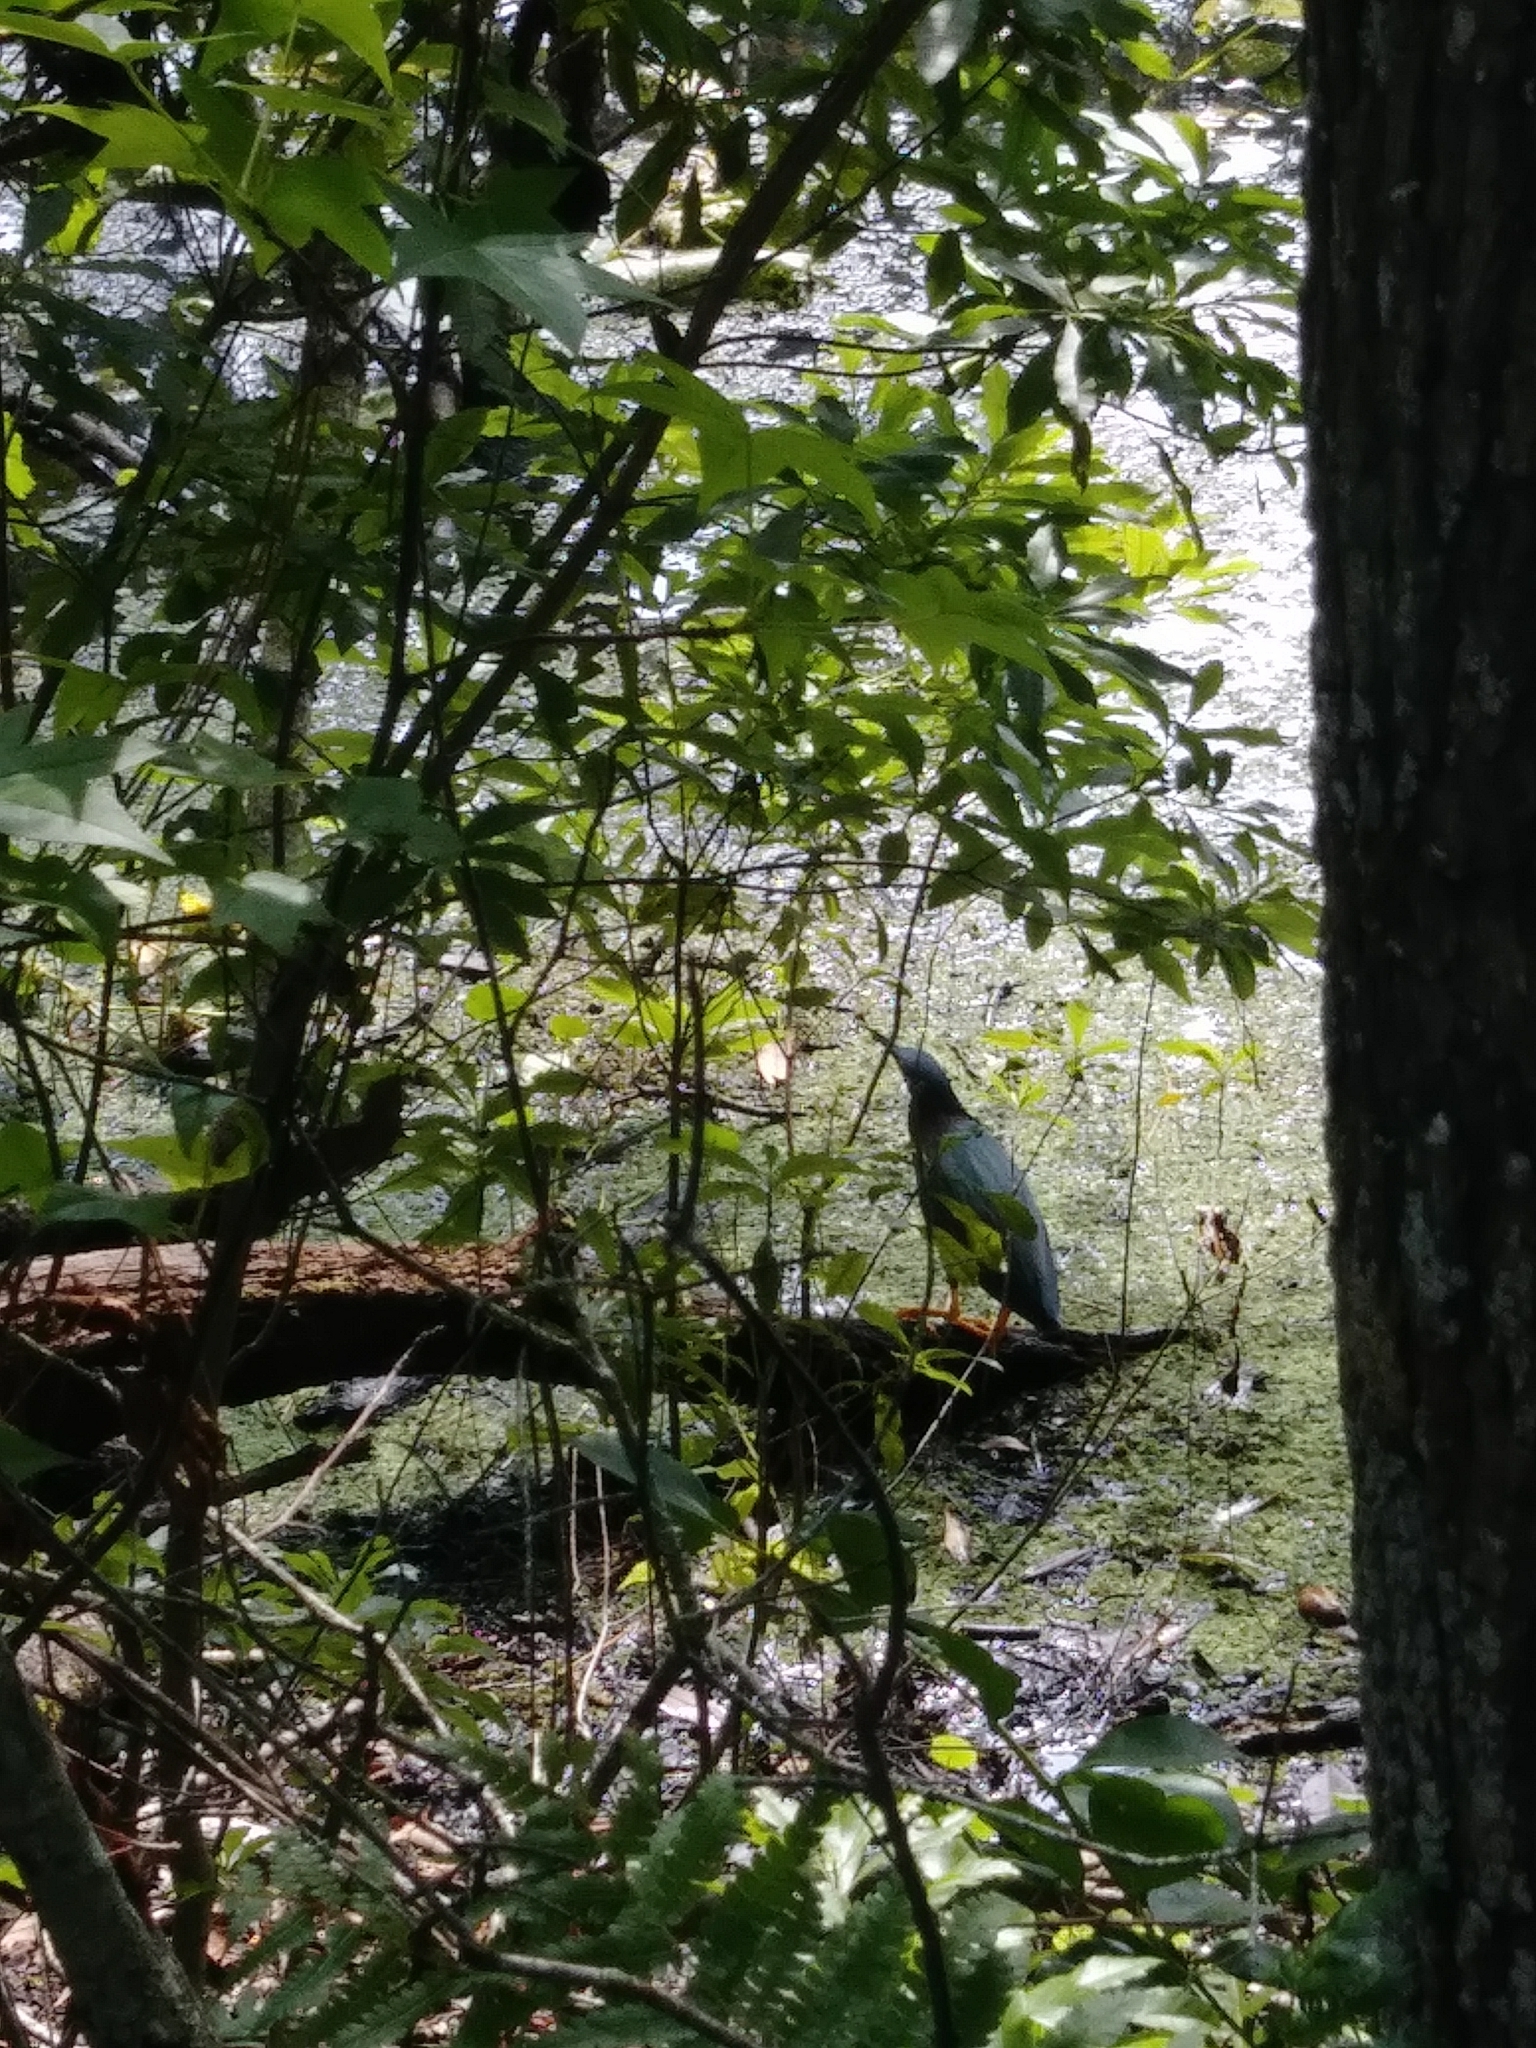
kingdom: Animalia
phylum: Chordata
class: Aves
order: Pelecaniformes
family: Ardeidae
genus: Butorides
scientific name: Butorides virescens
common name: Green heron
